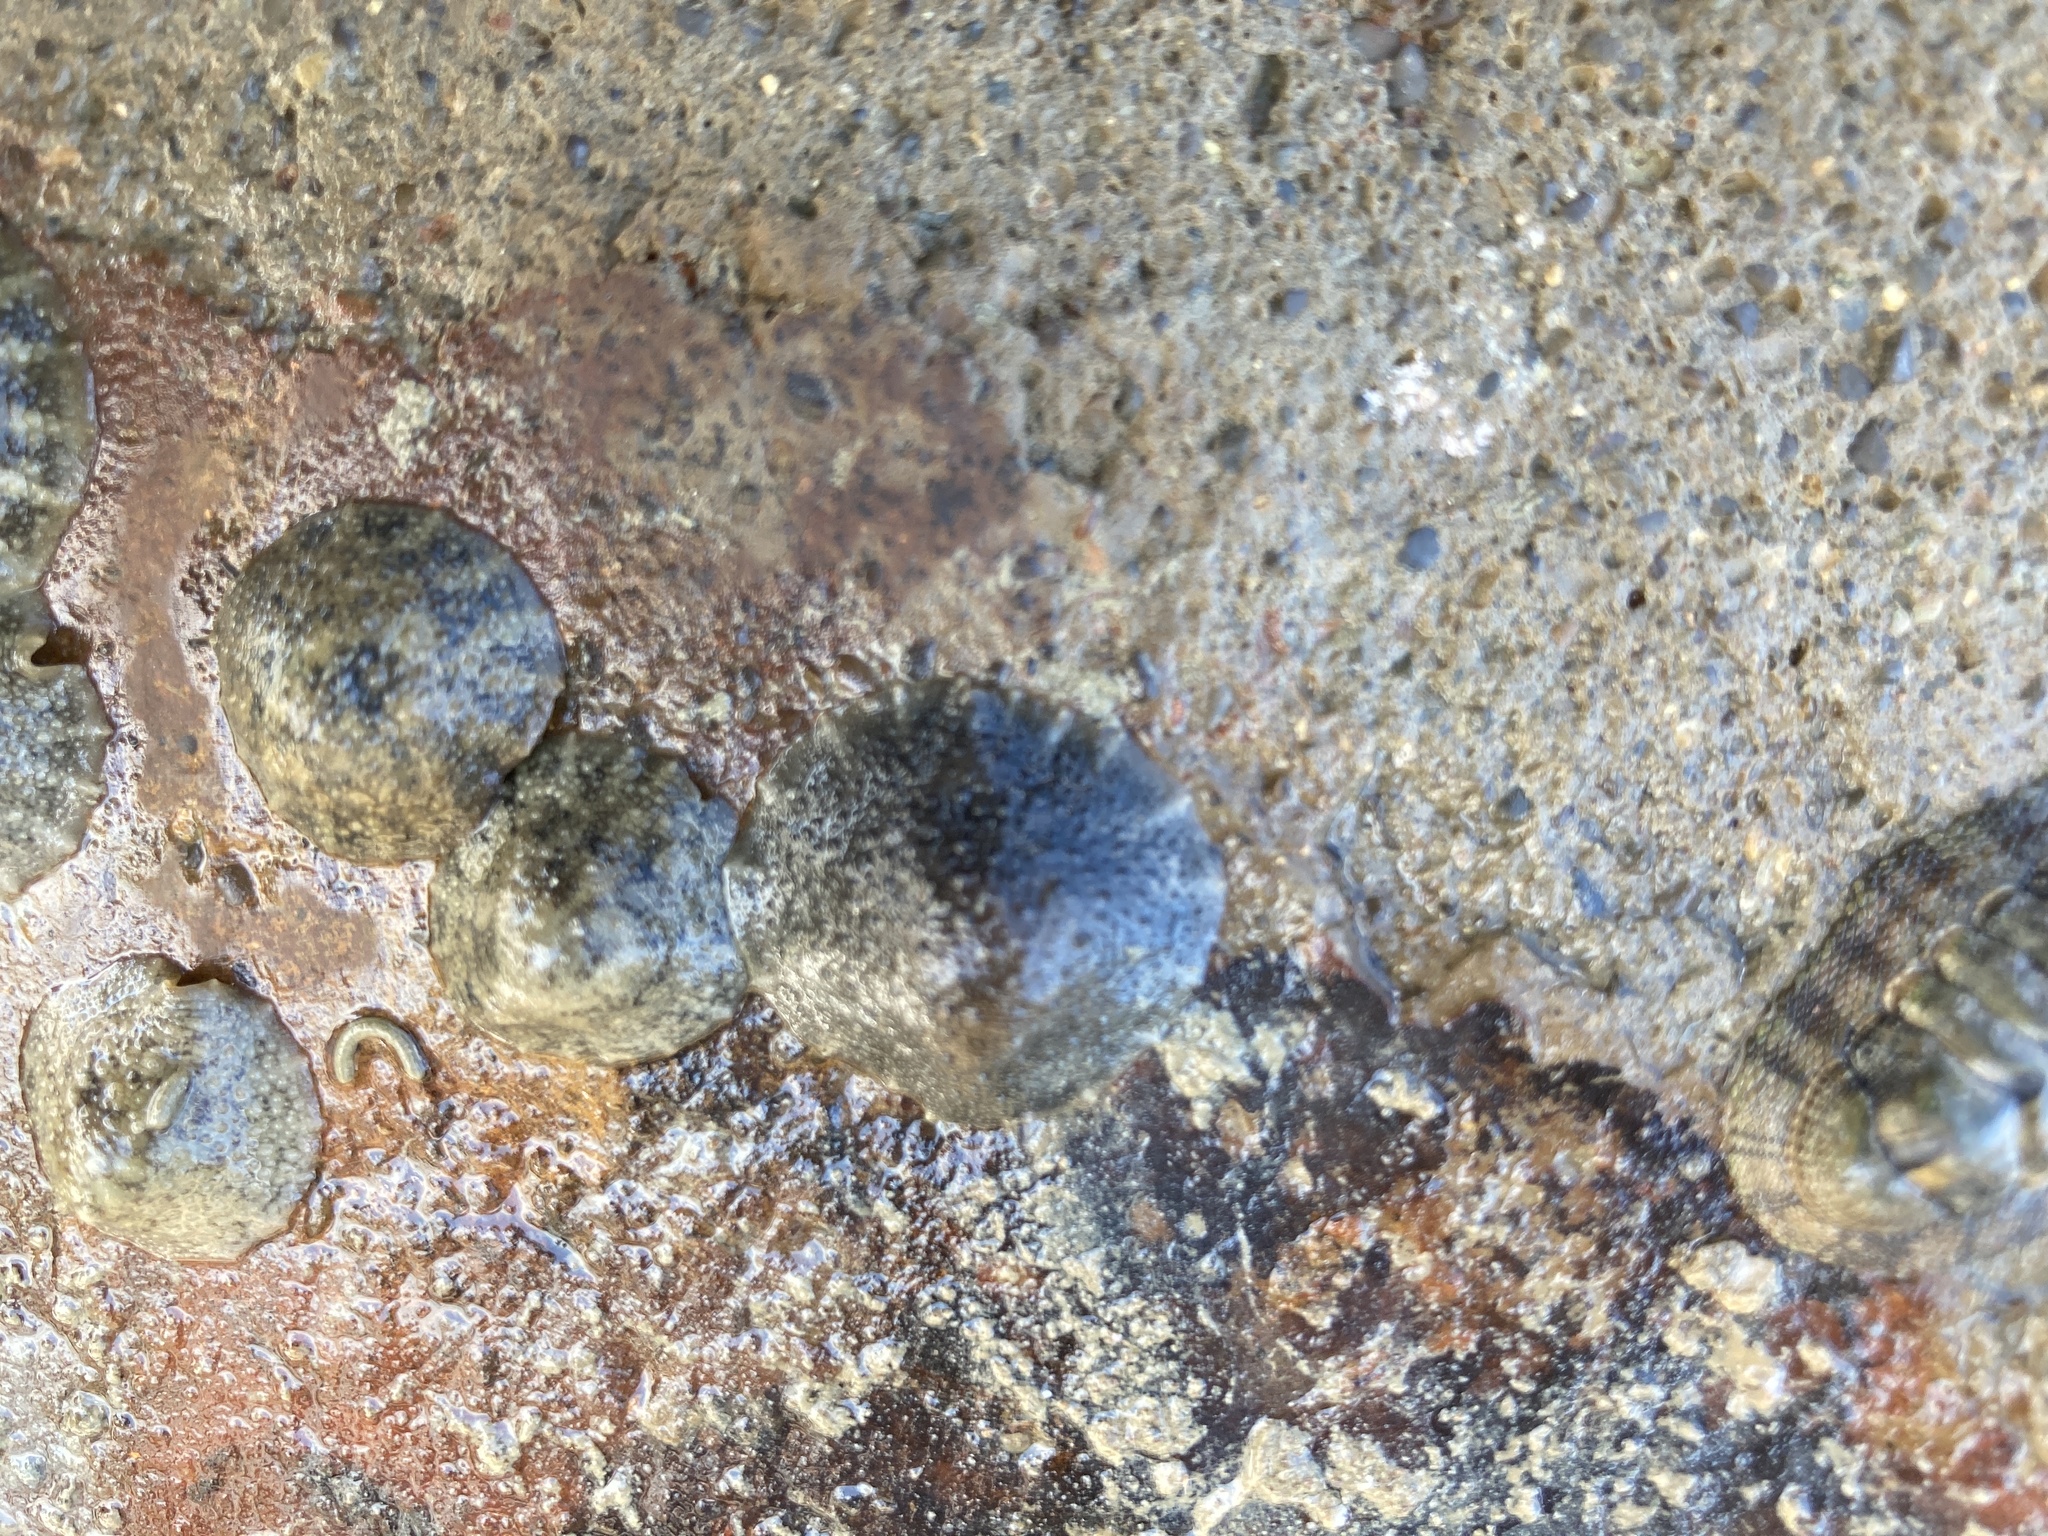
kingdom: Animalia
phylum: Mollusca
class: Gastropoda
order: Systellommatophora
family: Onchidiidae
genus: Onchidella
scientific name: Onchidella nigricans
